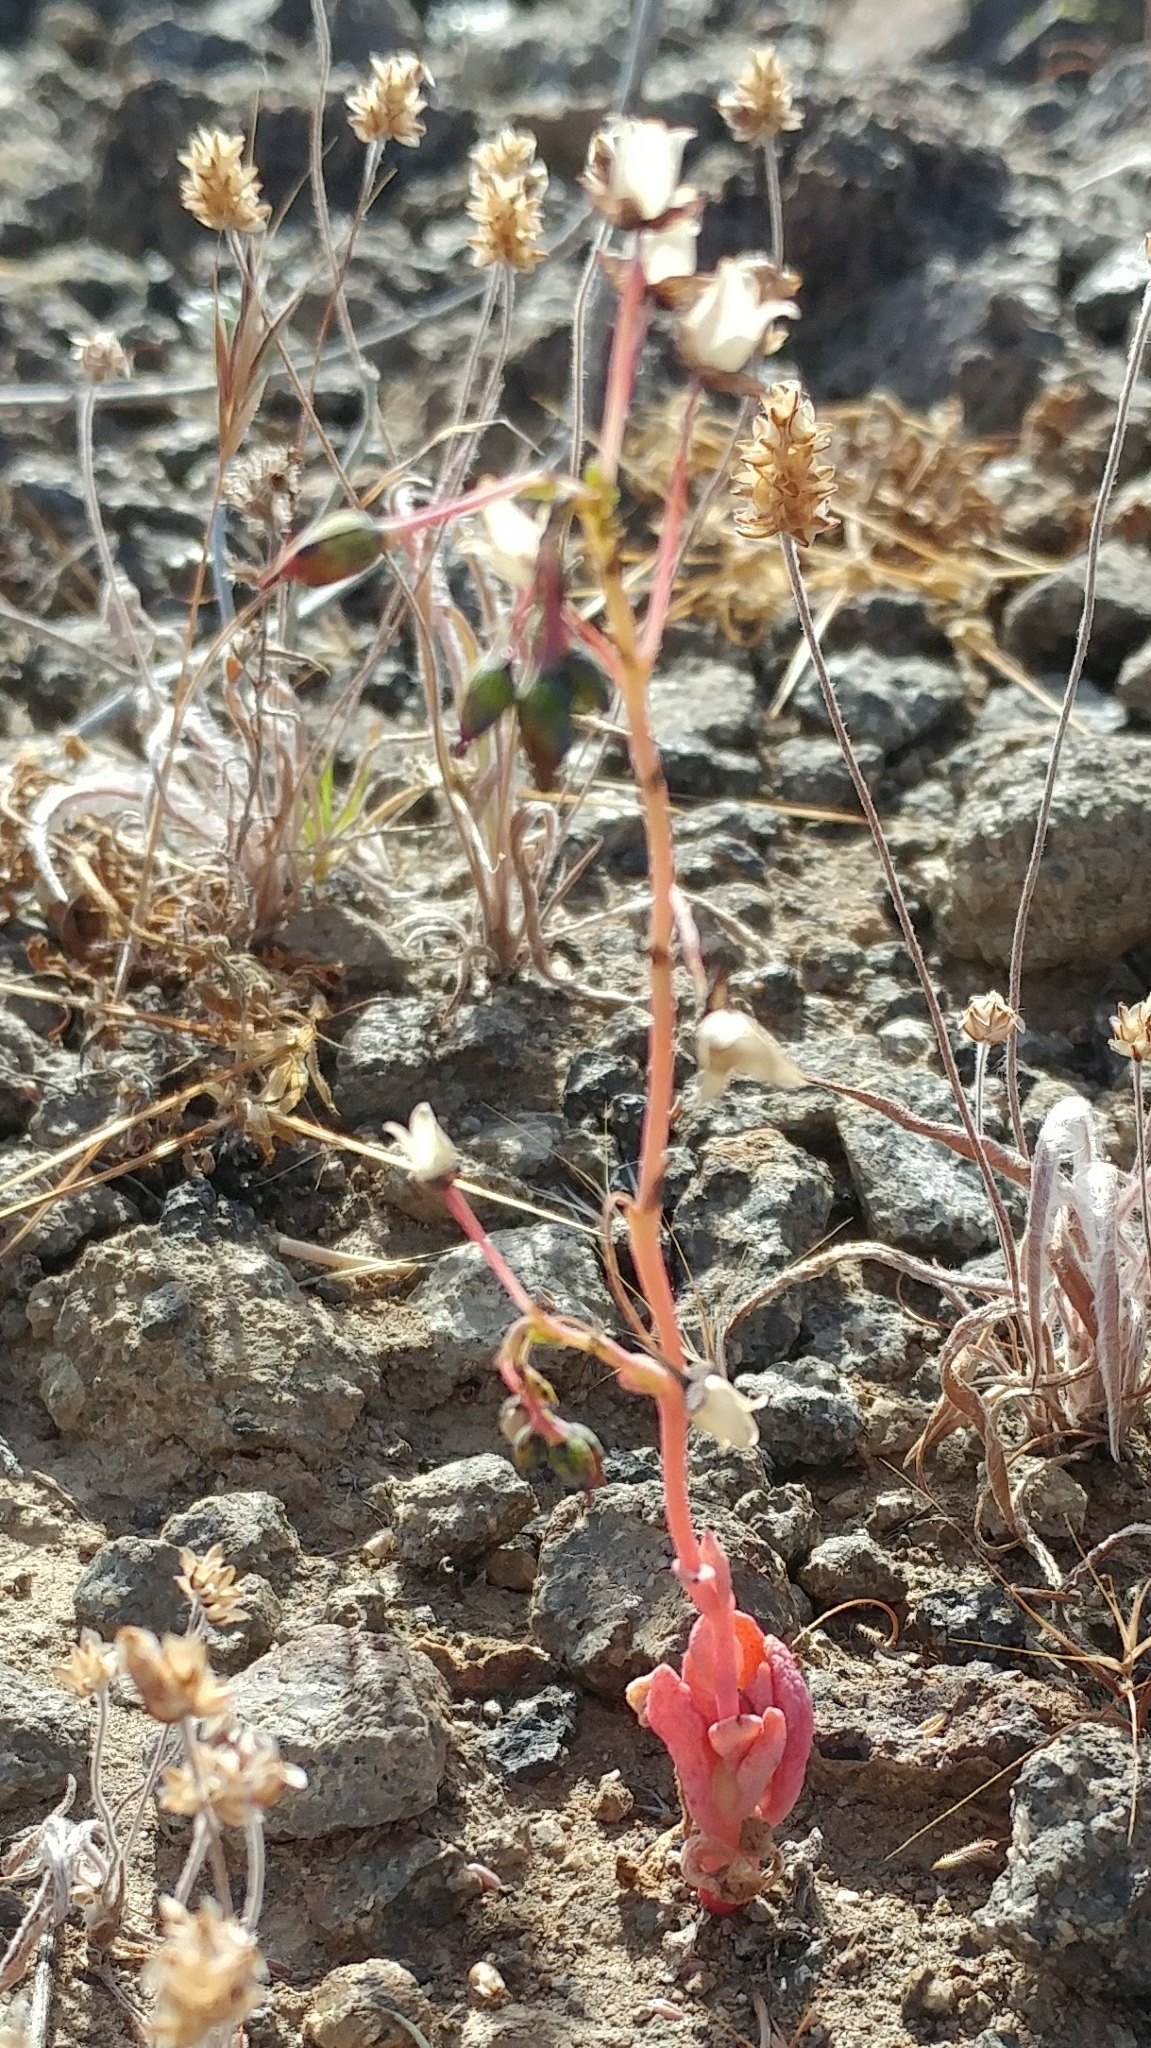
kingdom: Plantae
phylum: Tracheophyta
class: Magnoliopsida
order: Caryophyllales
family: Montiaceae
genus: Cistanthe
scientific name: Cistanthe maritima
